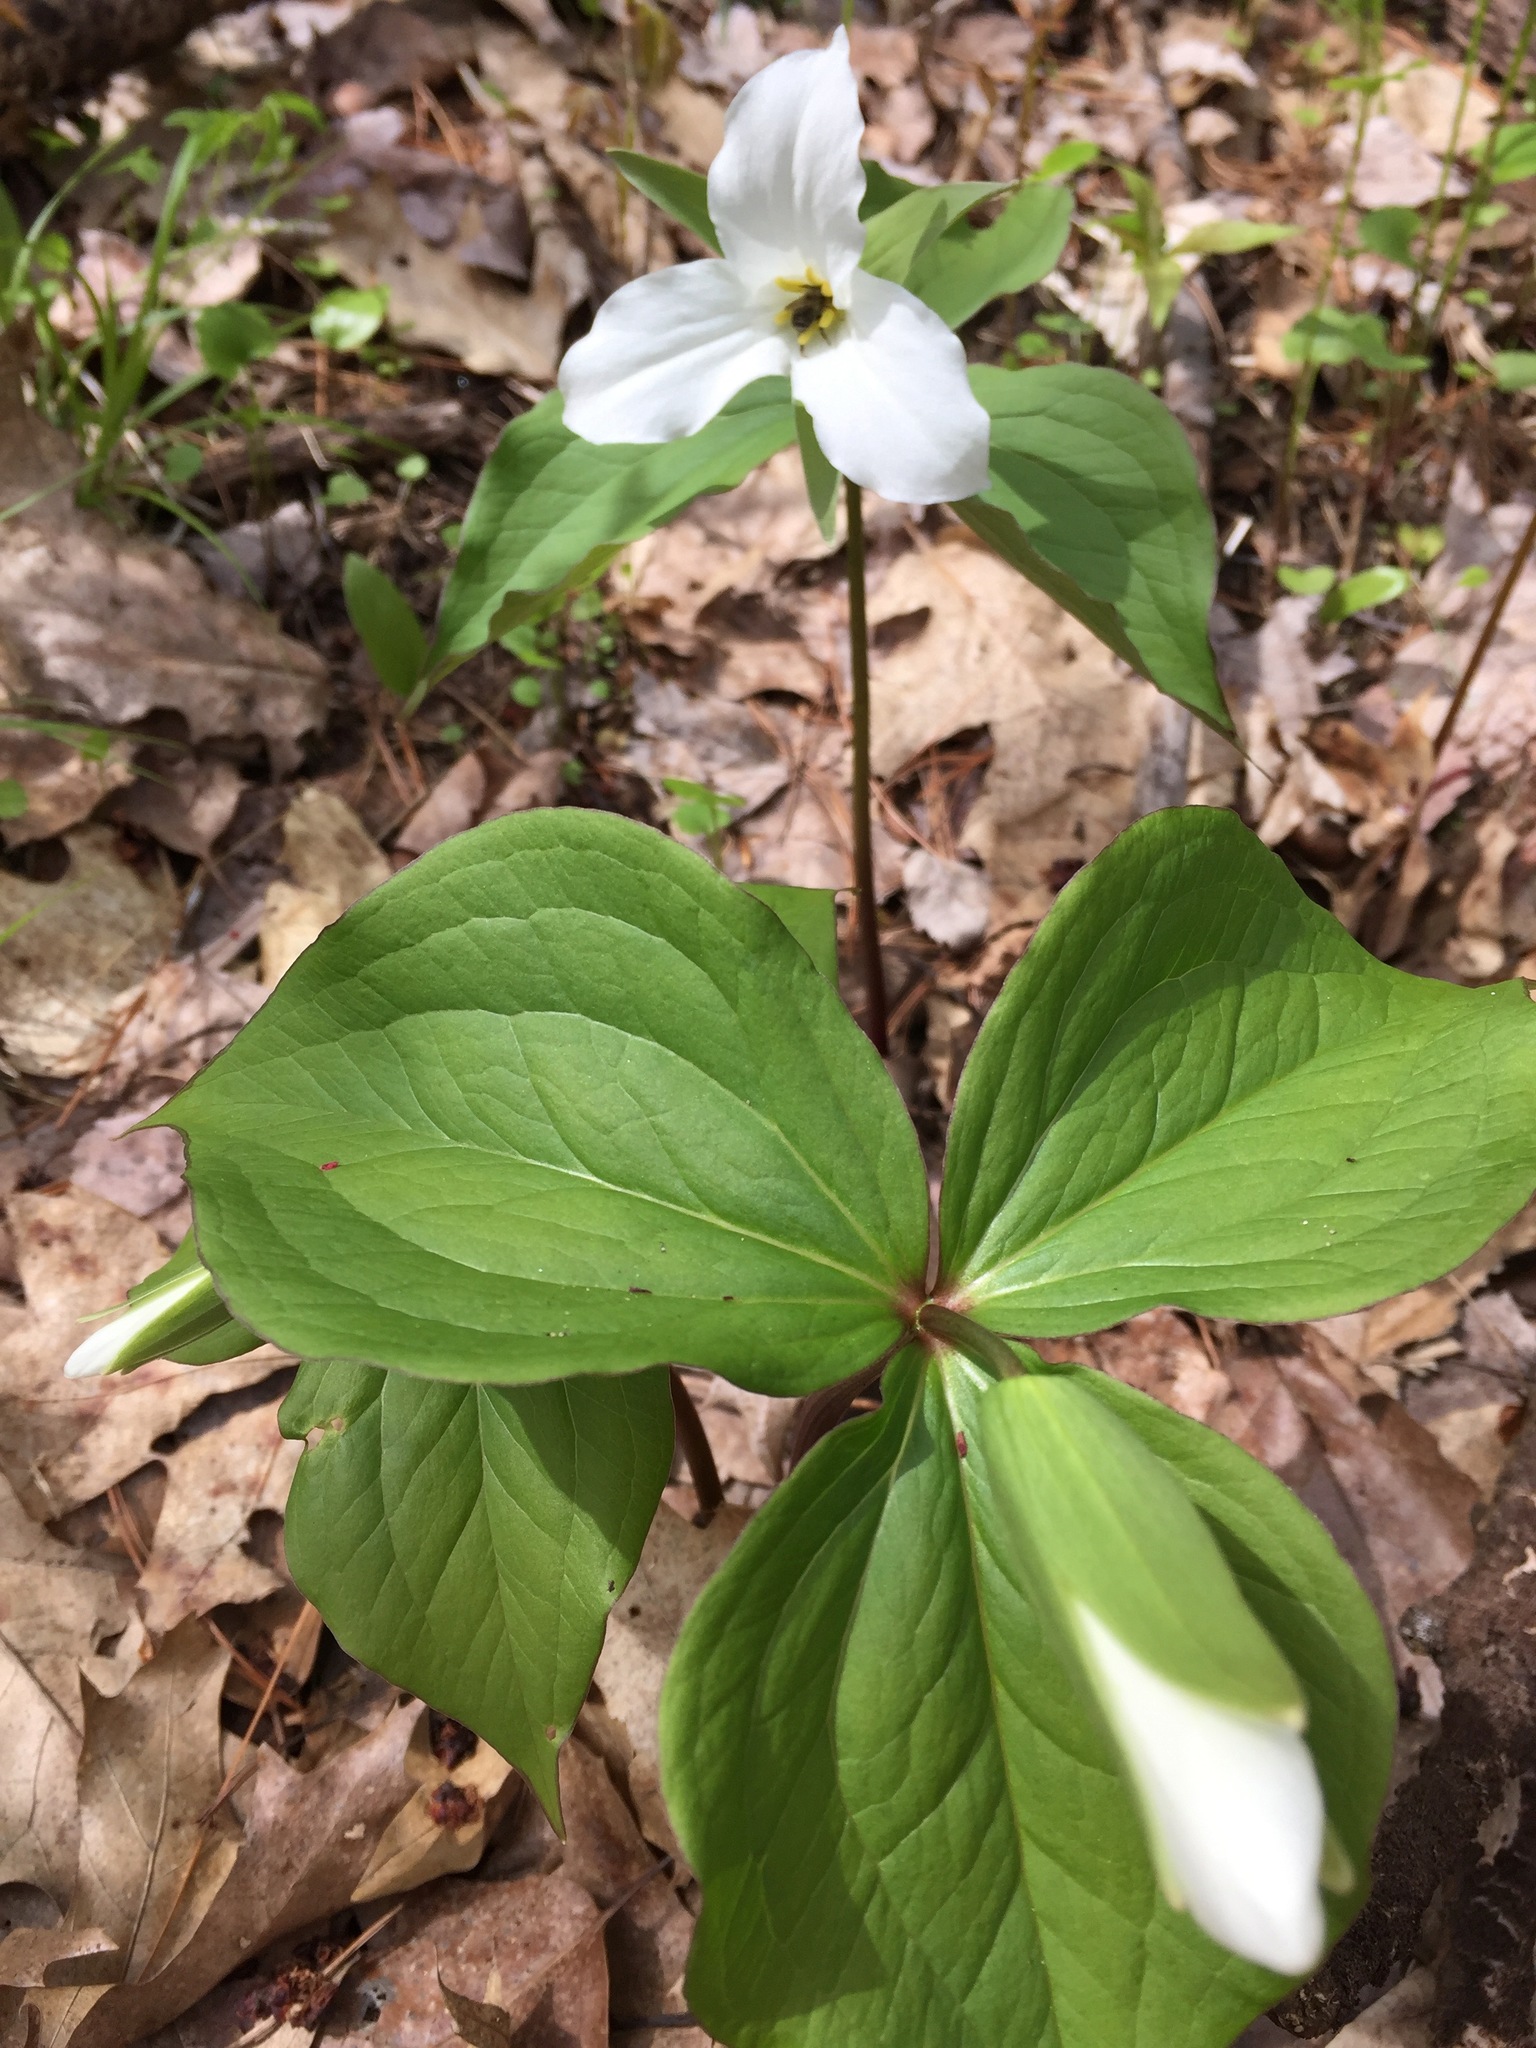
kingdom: Plantae
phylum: Tracheophyta
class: Liliopsida
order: Liliales
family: Melanthiaceae
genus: Trillium
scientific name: Trillium grandiflorum
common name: Great white trillium
